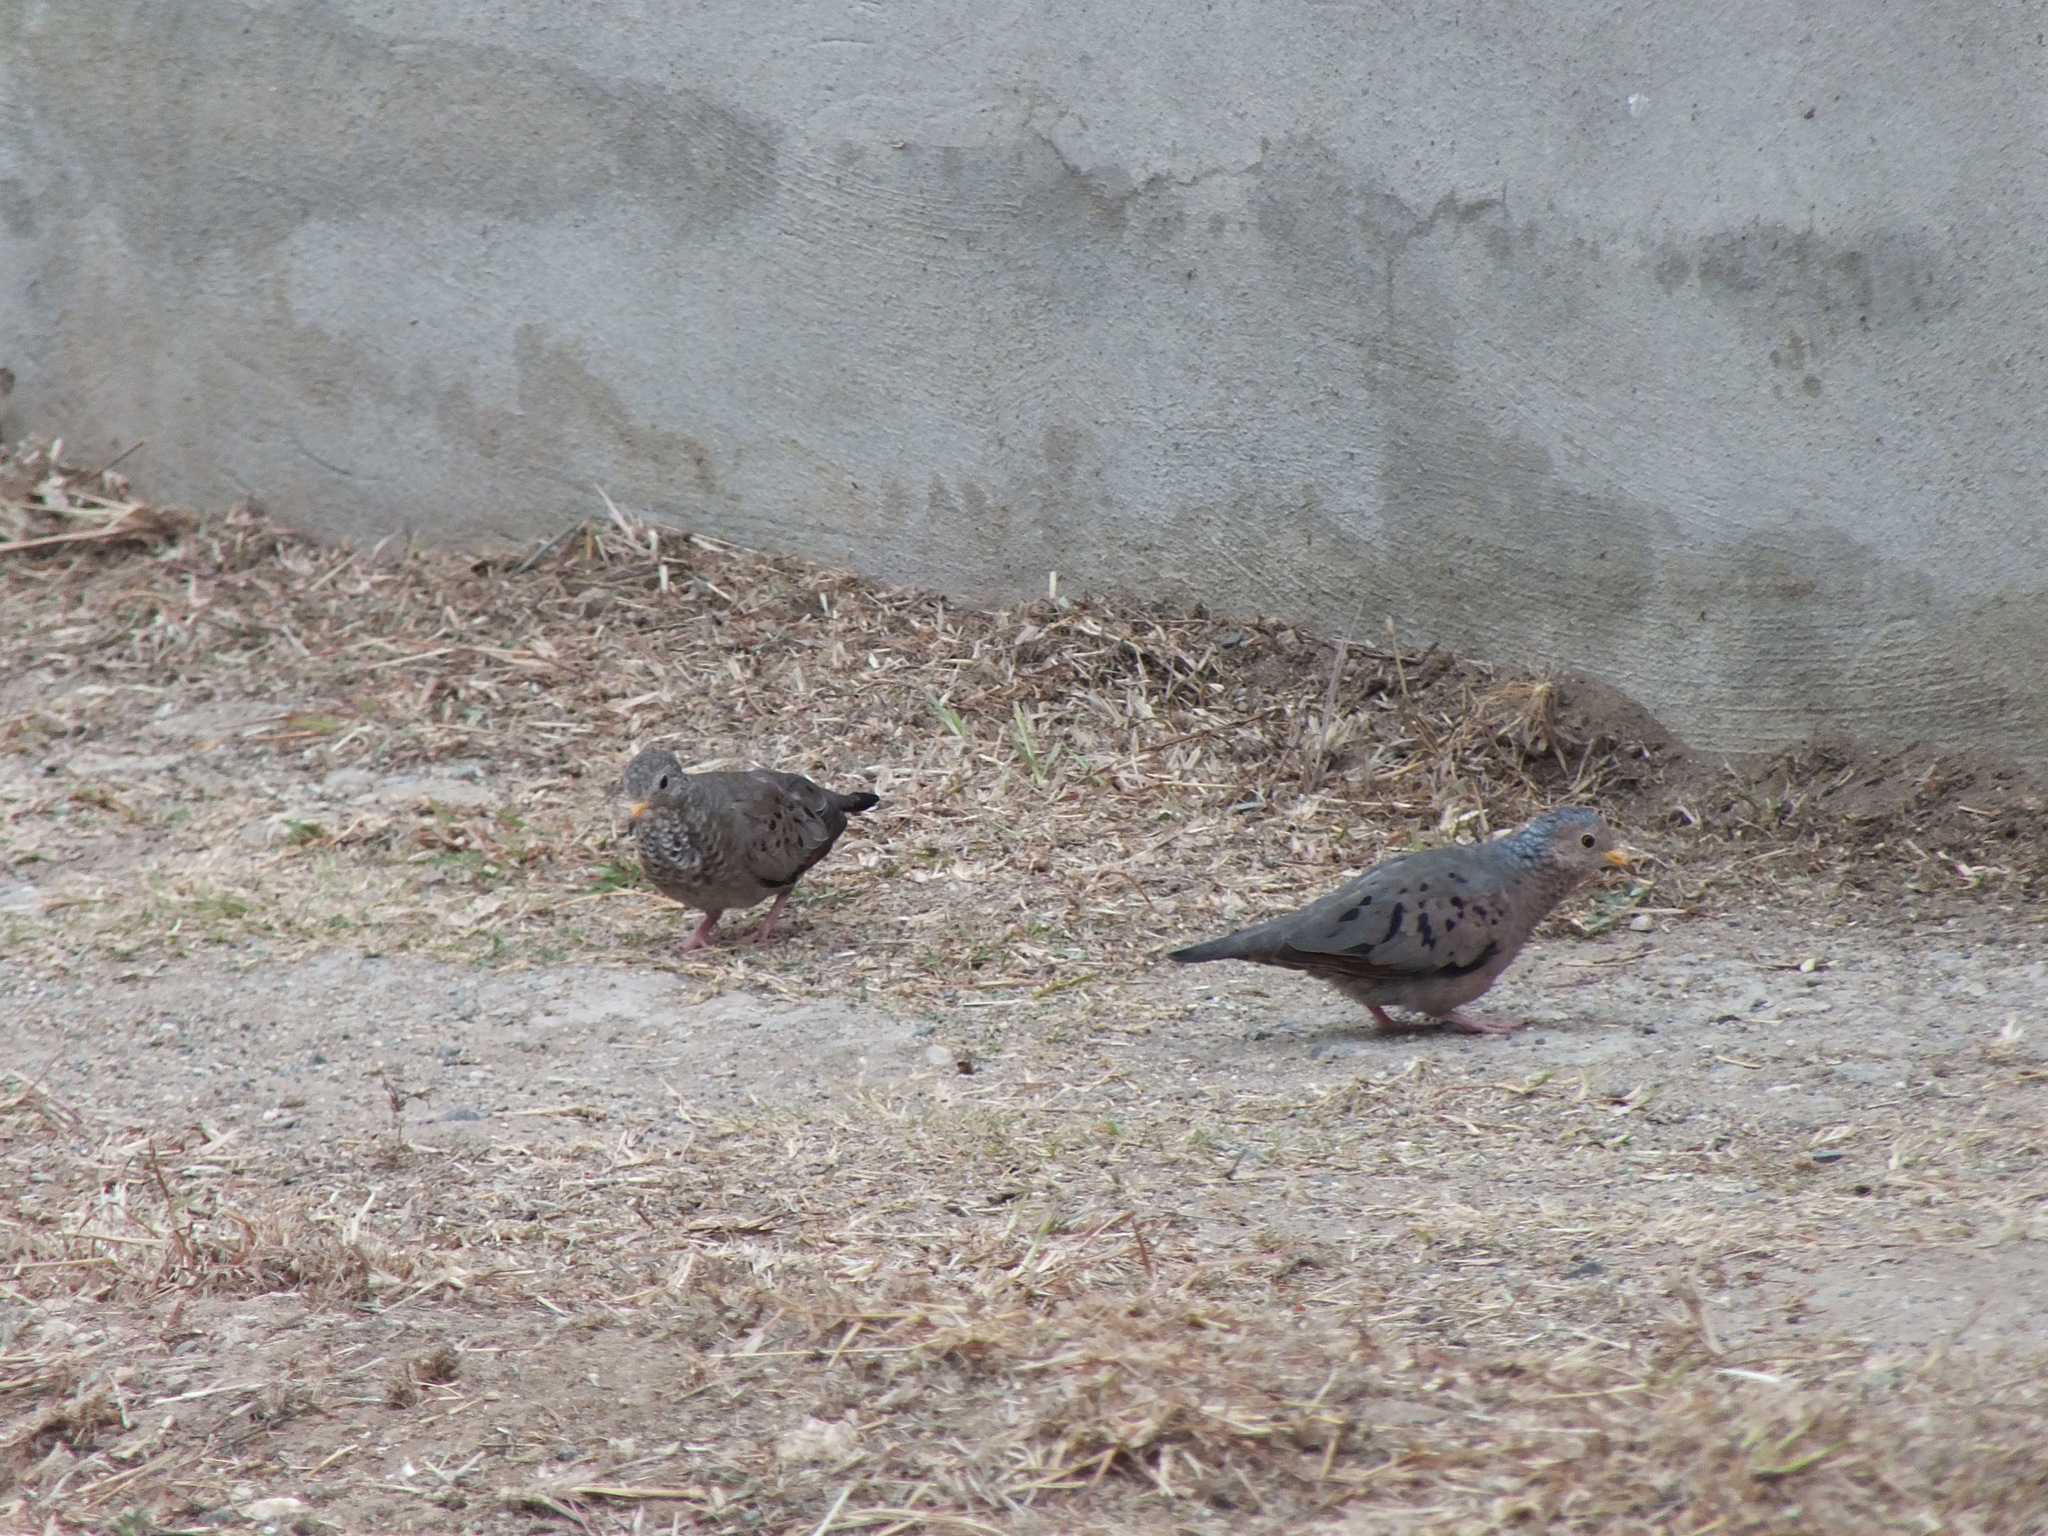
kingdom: Animalia
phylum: Chordata
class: Aves
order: Columbiformes
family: Columbidae
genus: Columbina
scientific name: Columbina passerina
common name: Common ground-dove
